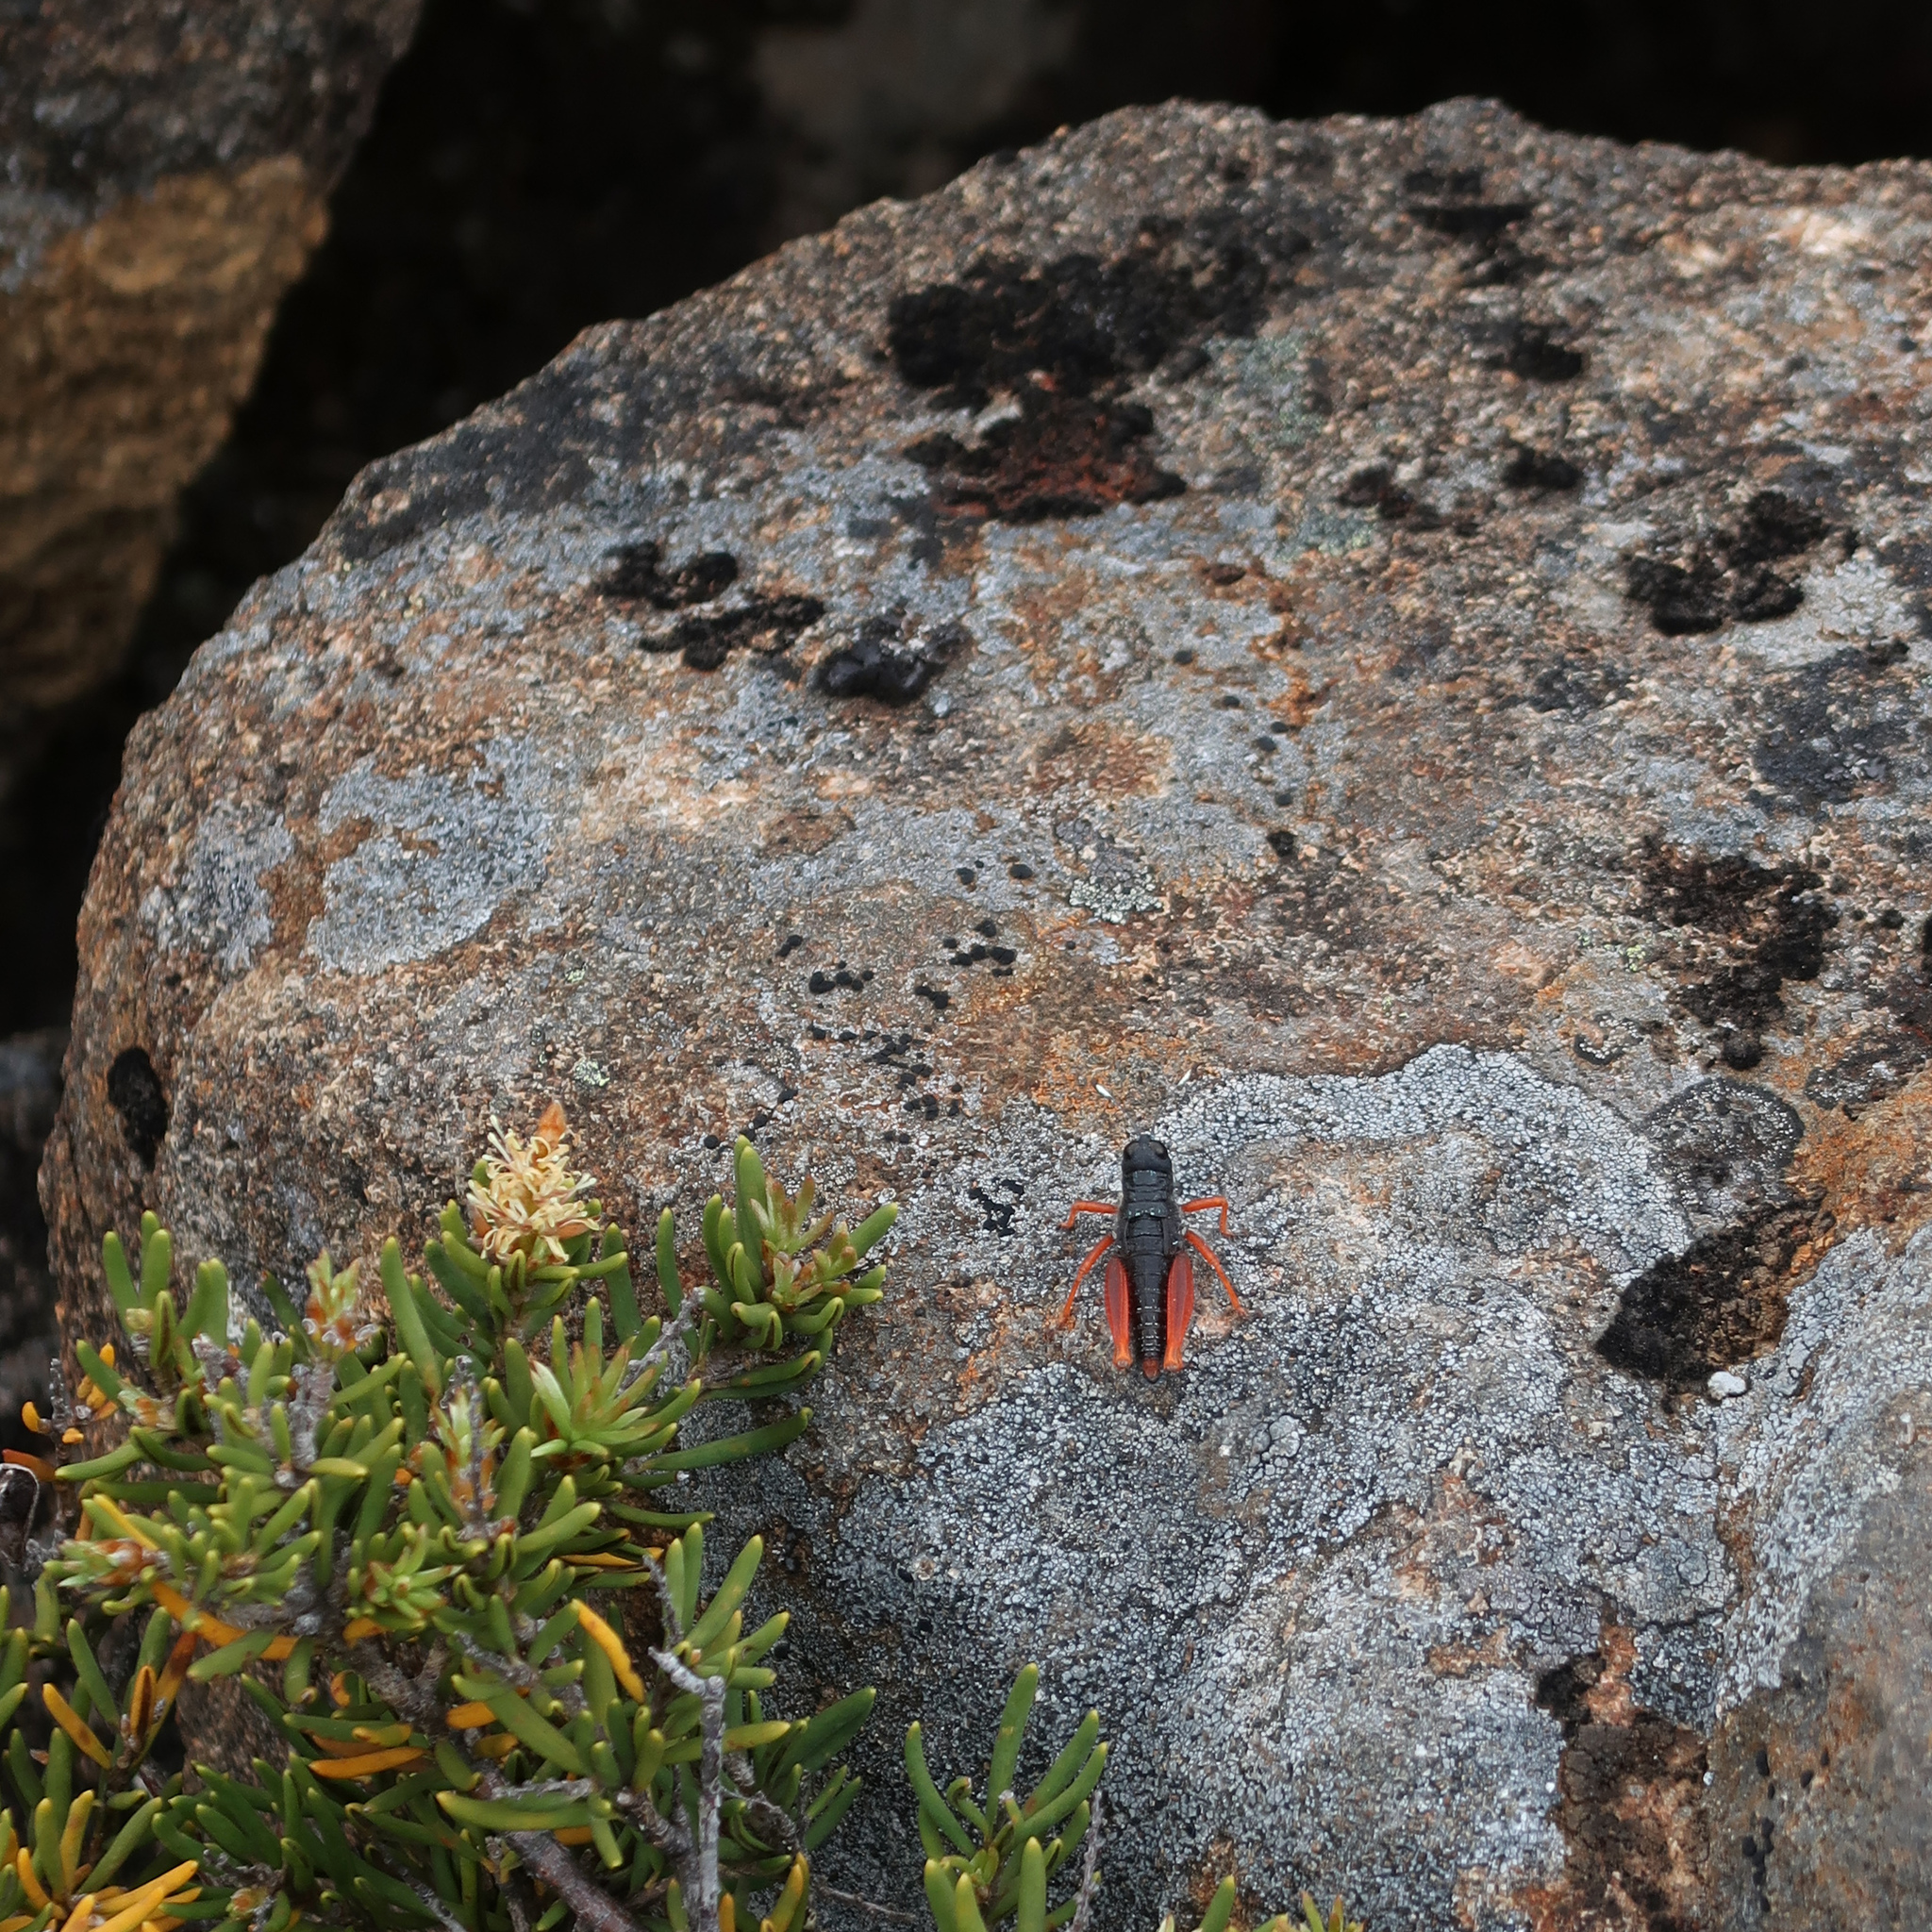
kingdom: Animalia
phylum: Arthropoda
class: Insecta
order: Orthoptera
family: Acrididae
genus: Tasmanalpina
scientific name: Tasmanalpina clavata
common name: Tasmanian velvet grasshopper
